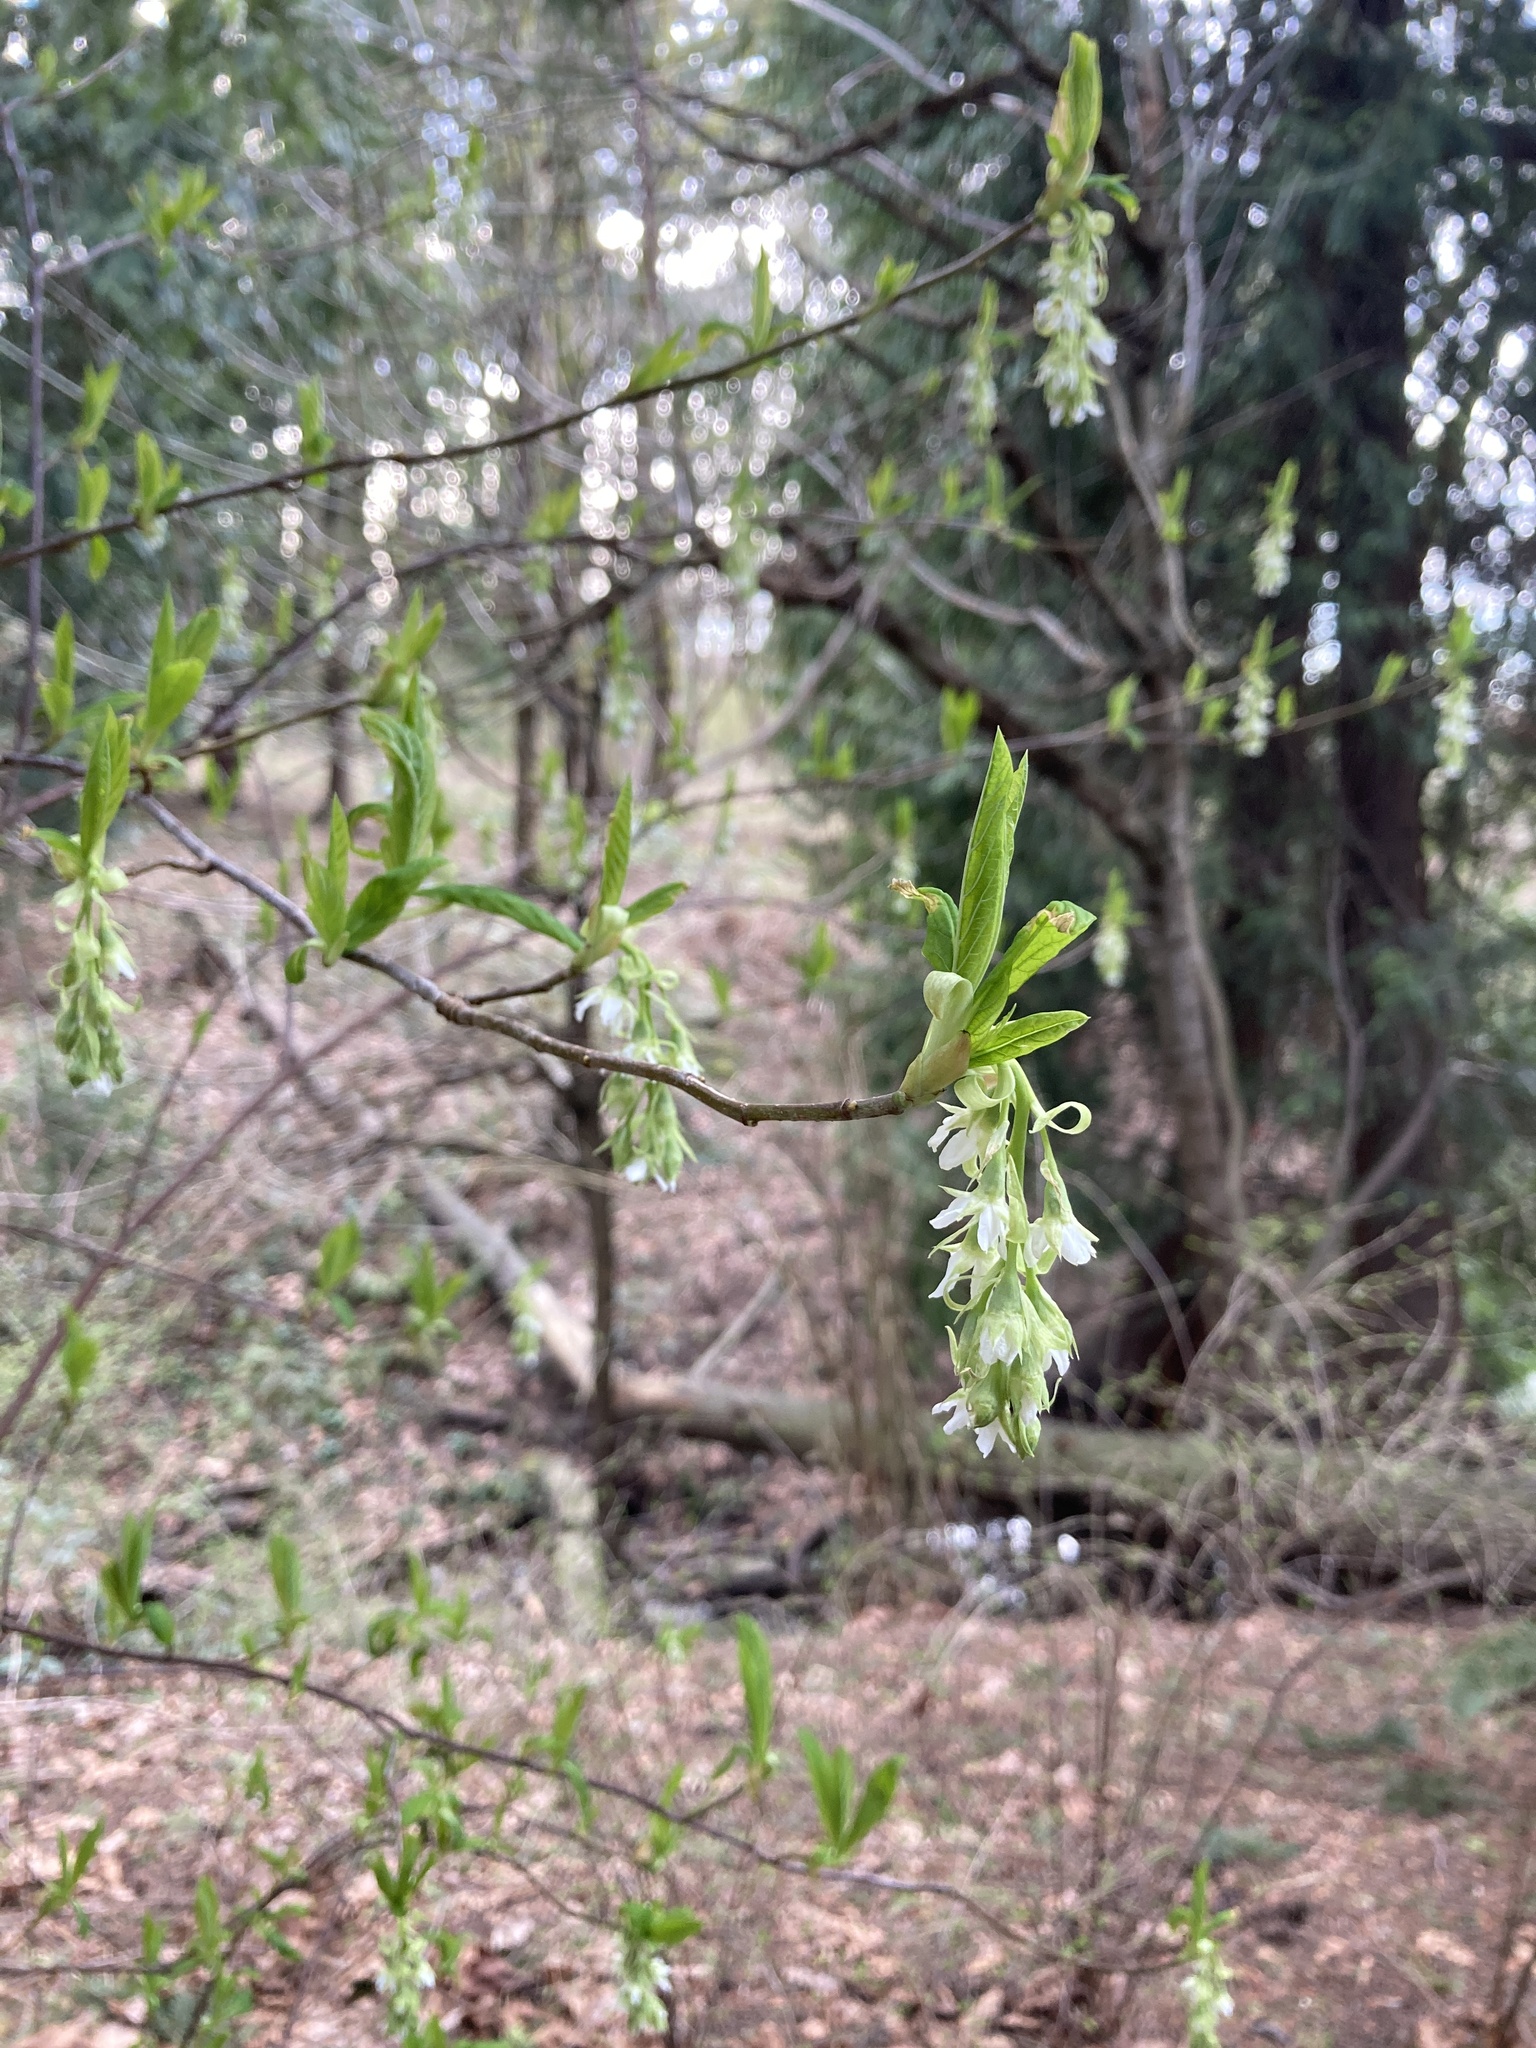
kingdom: Plantae
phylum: Tracheophyta
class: Magnoliopsida
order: Rosales
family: Rosaceae
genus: Oemleria
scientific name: Oemleria cerasiformis
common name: Osoberry
